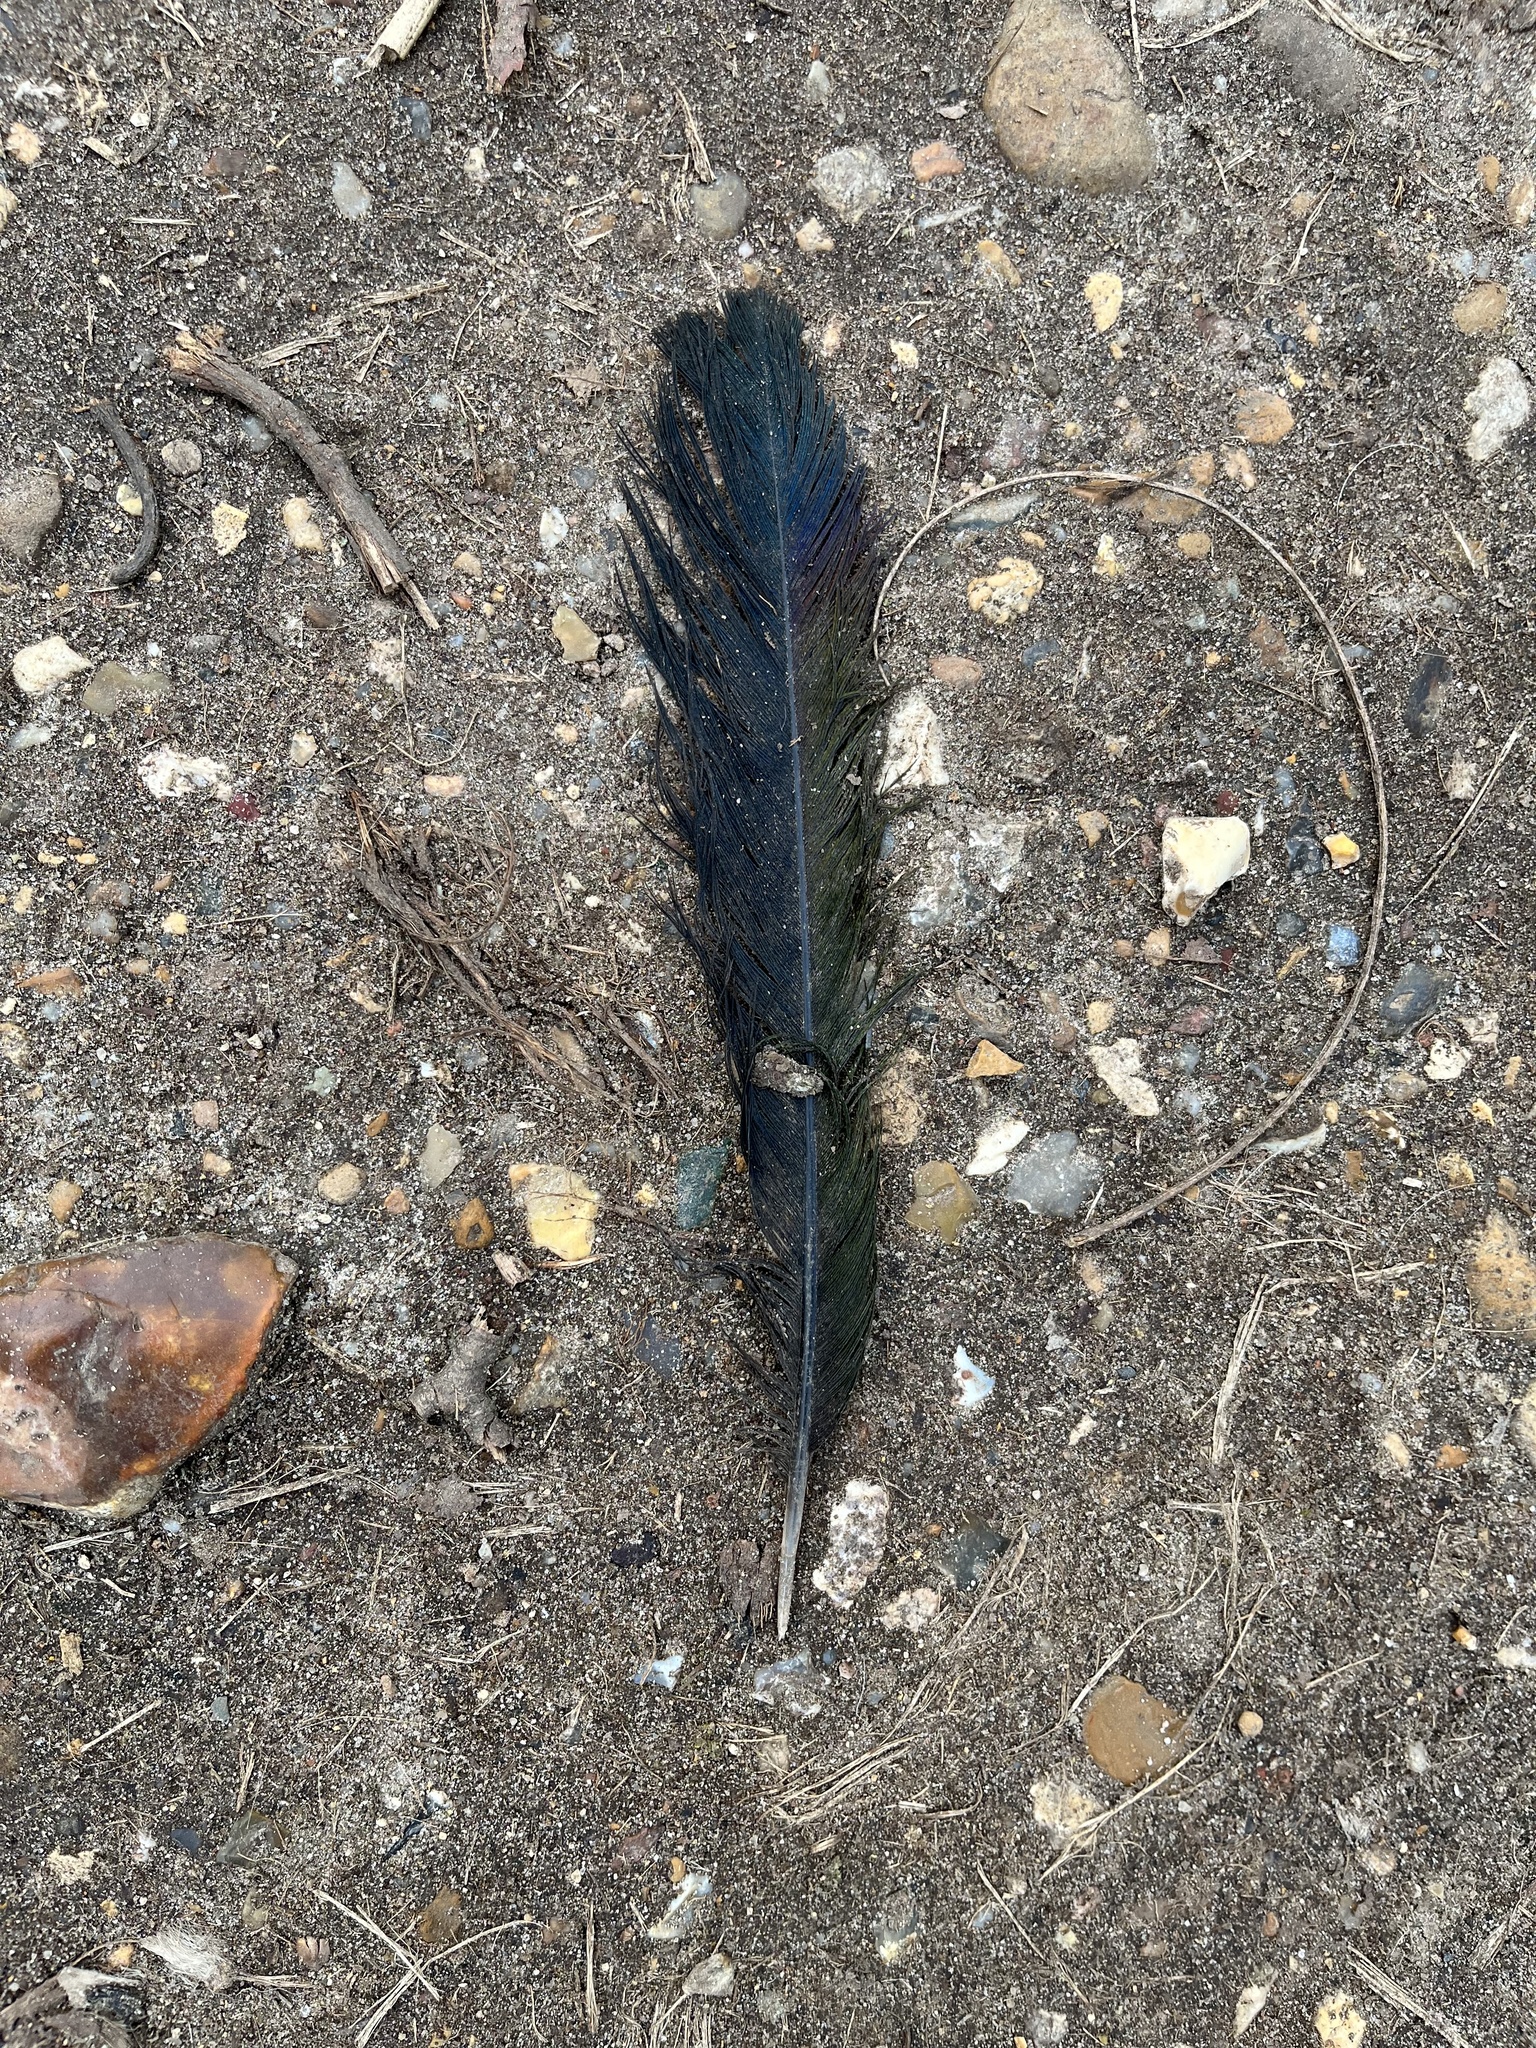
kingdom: Animalia
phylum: Chordata
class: Aves
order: Passeriformes
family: Corvidae
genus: Pica
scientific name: Pica pica
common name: Eurasian magpie
